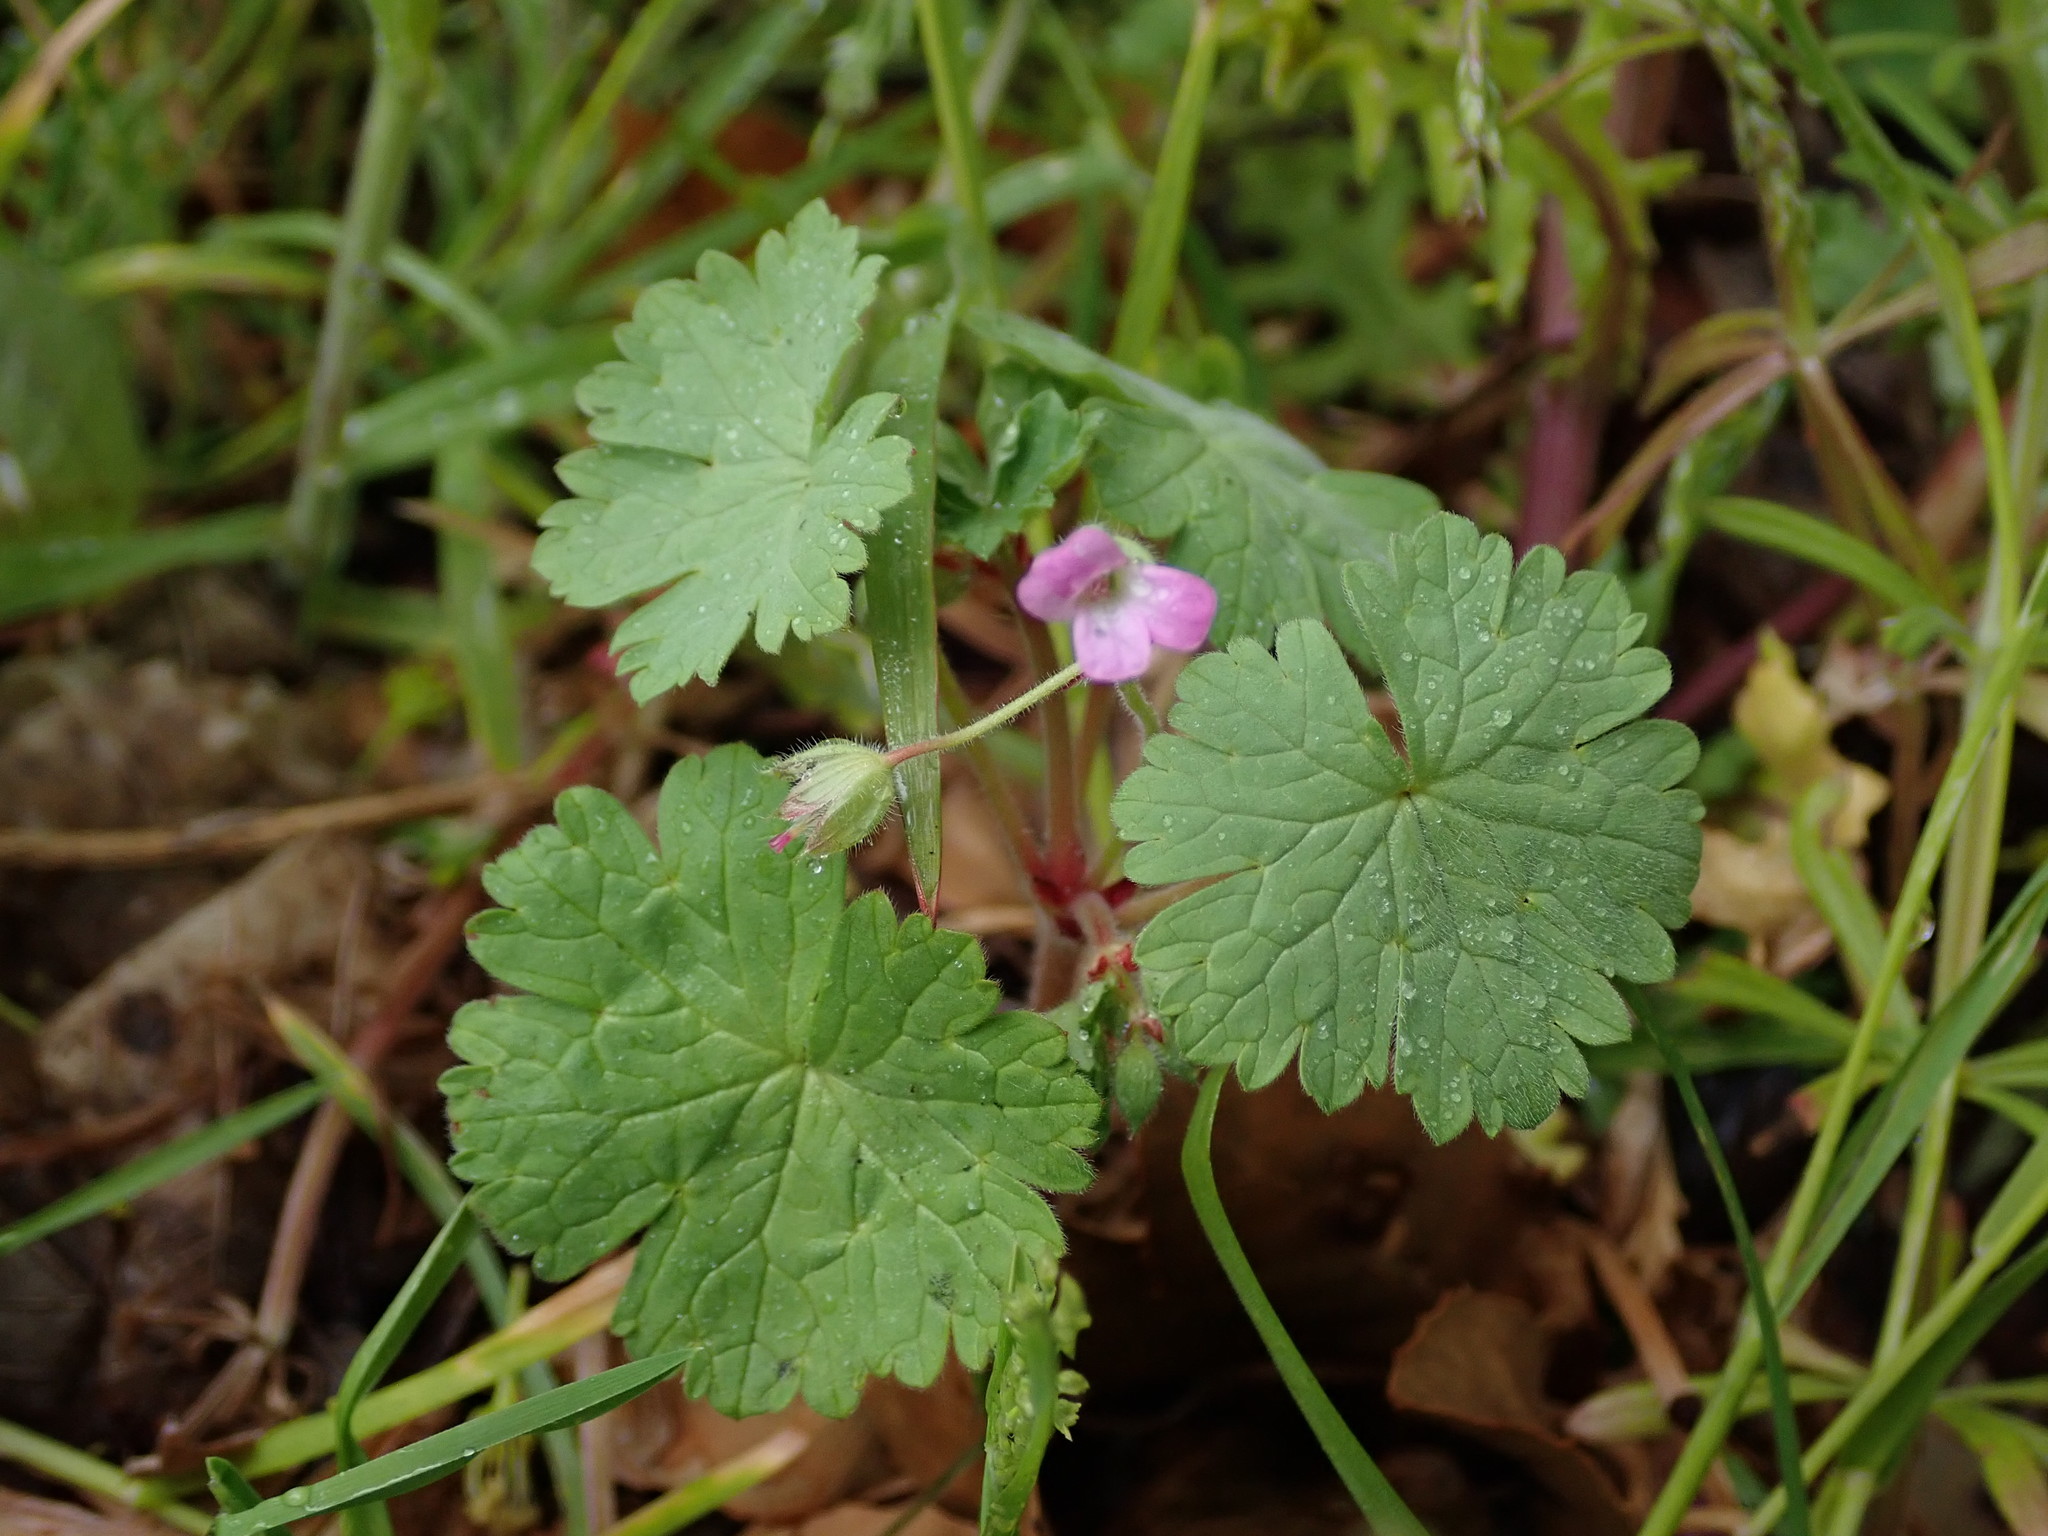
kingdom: Plantae
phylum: Tracheophyta
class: Magnoliopsida
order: Geraniales
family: Geraniaceae
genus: Geranium
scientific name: Geranium rotundifolium
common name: Round-leaved crane's-bill
